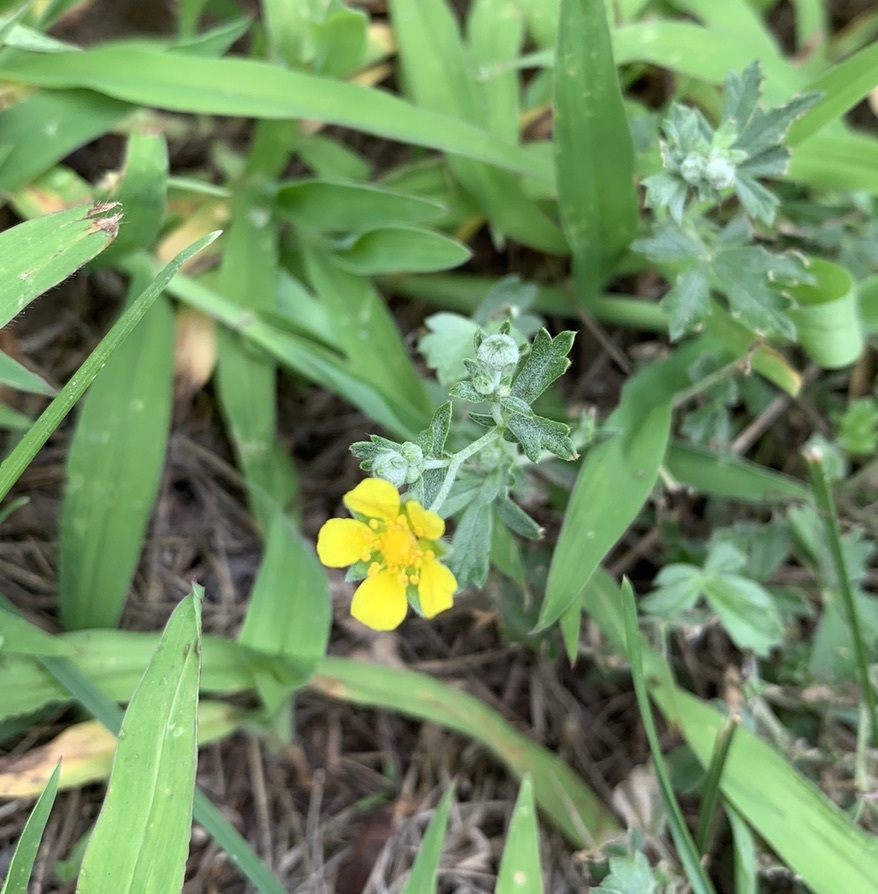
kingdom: Plantae
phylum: Tracheophyta
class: Magnoliopsida
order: Rosales
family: Rosaceae
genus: Potentilla
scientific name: Potentilla argentea
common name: Hoary cinquefoil
